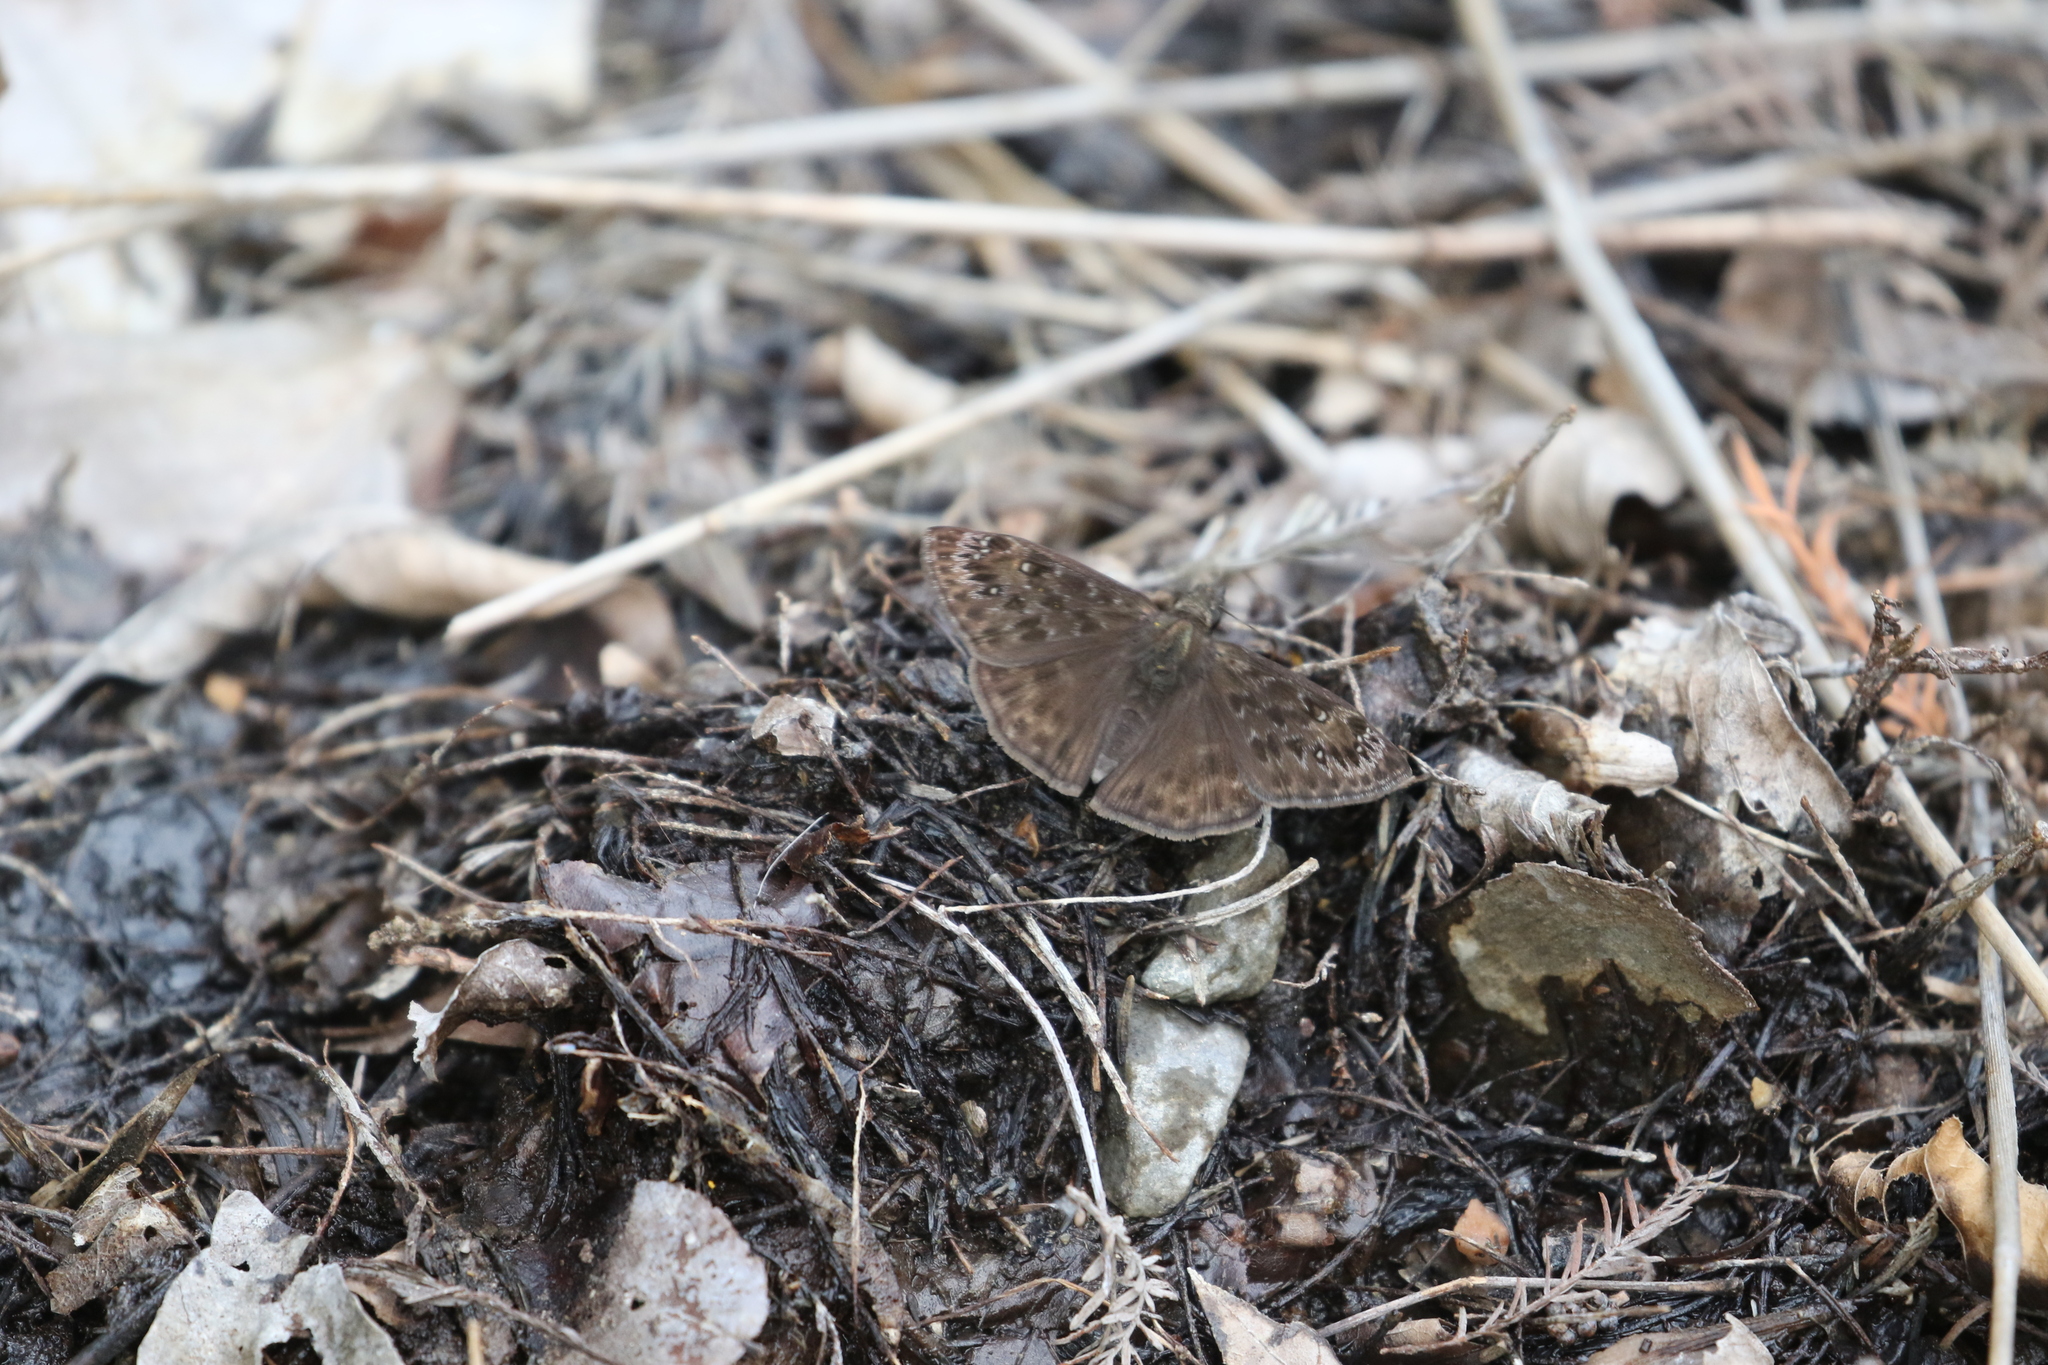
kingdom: Animalia
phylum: Arthropoda
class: Insecta
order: Lepidoptera
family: Hesperiidae
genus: Erynnis
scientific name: Erynnis horatius
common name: Horace's duskywing
